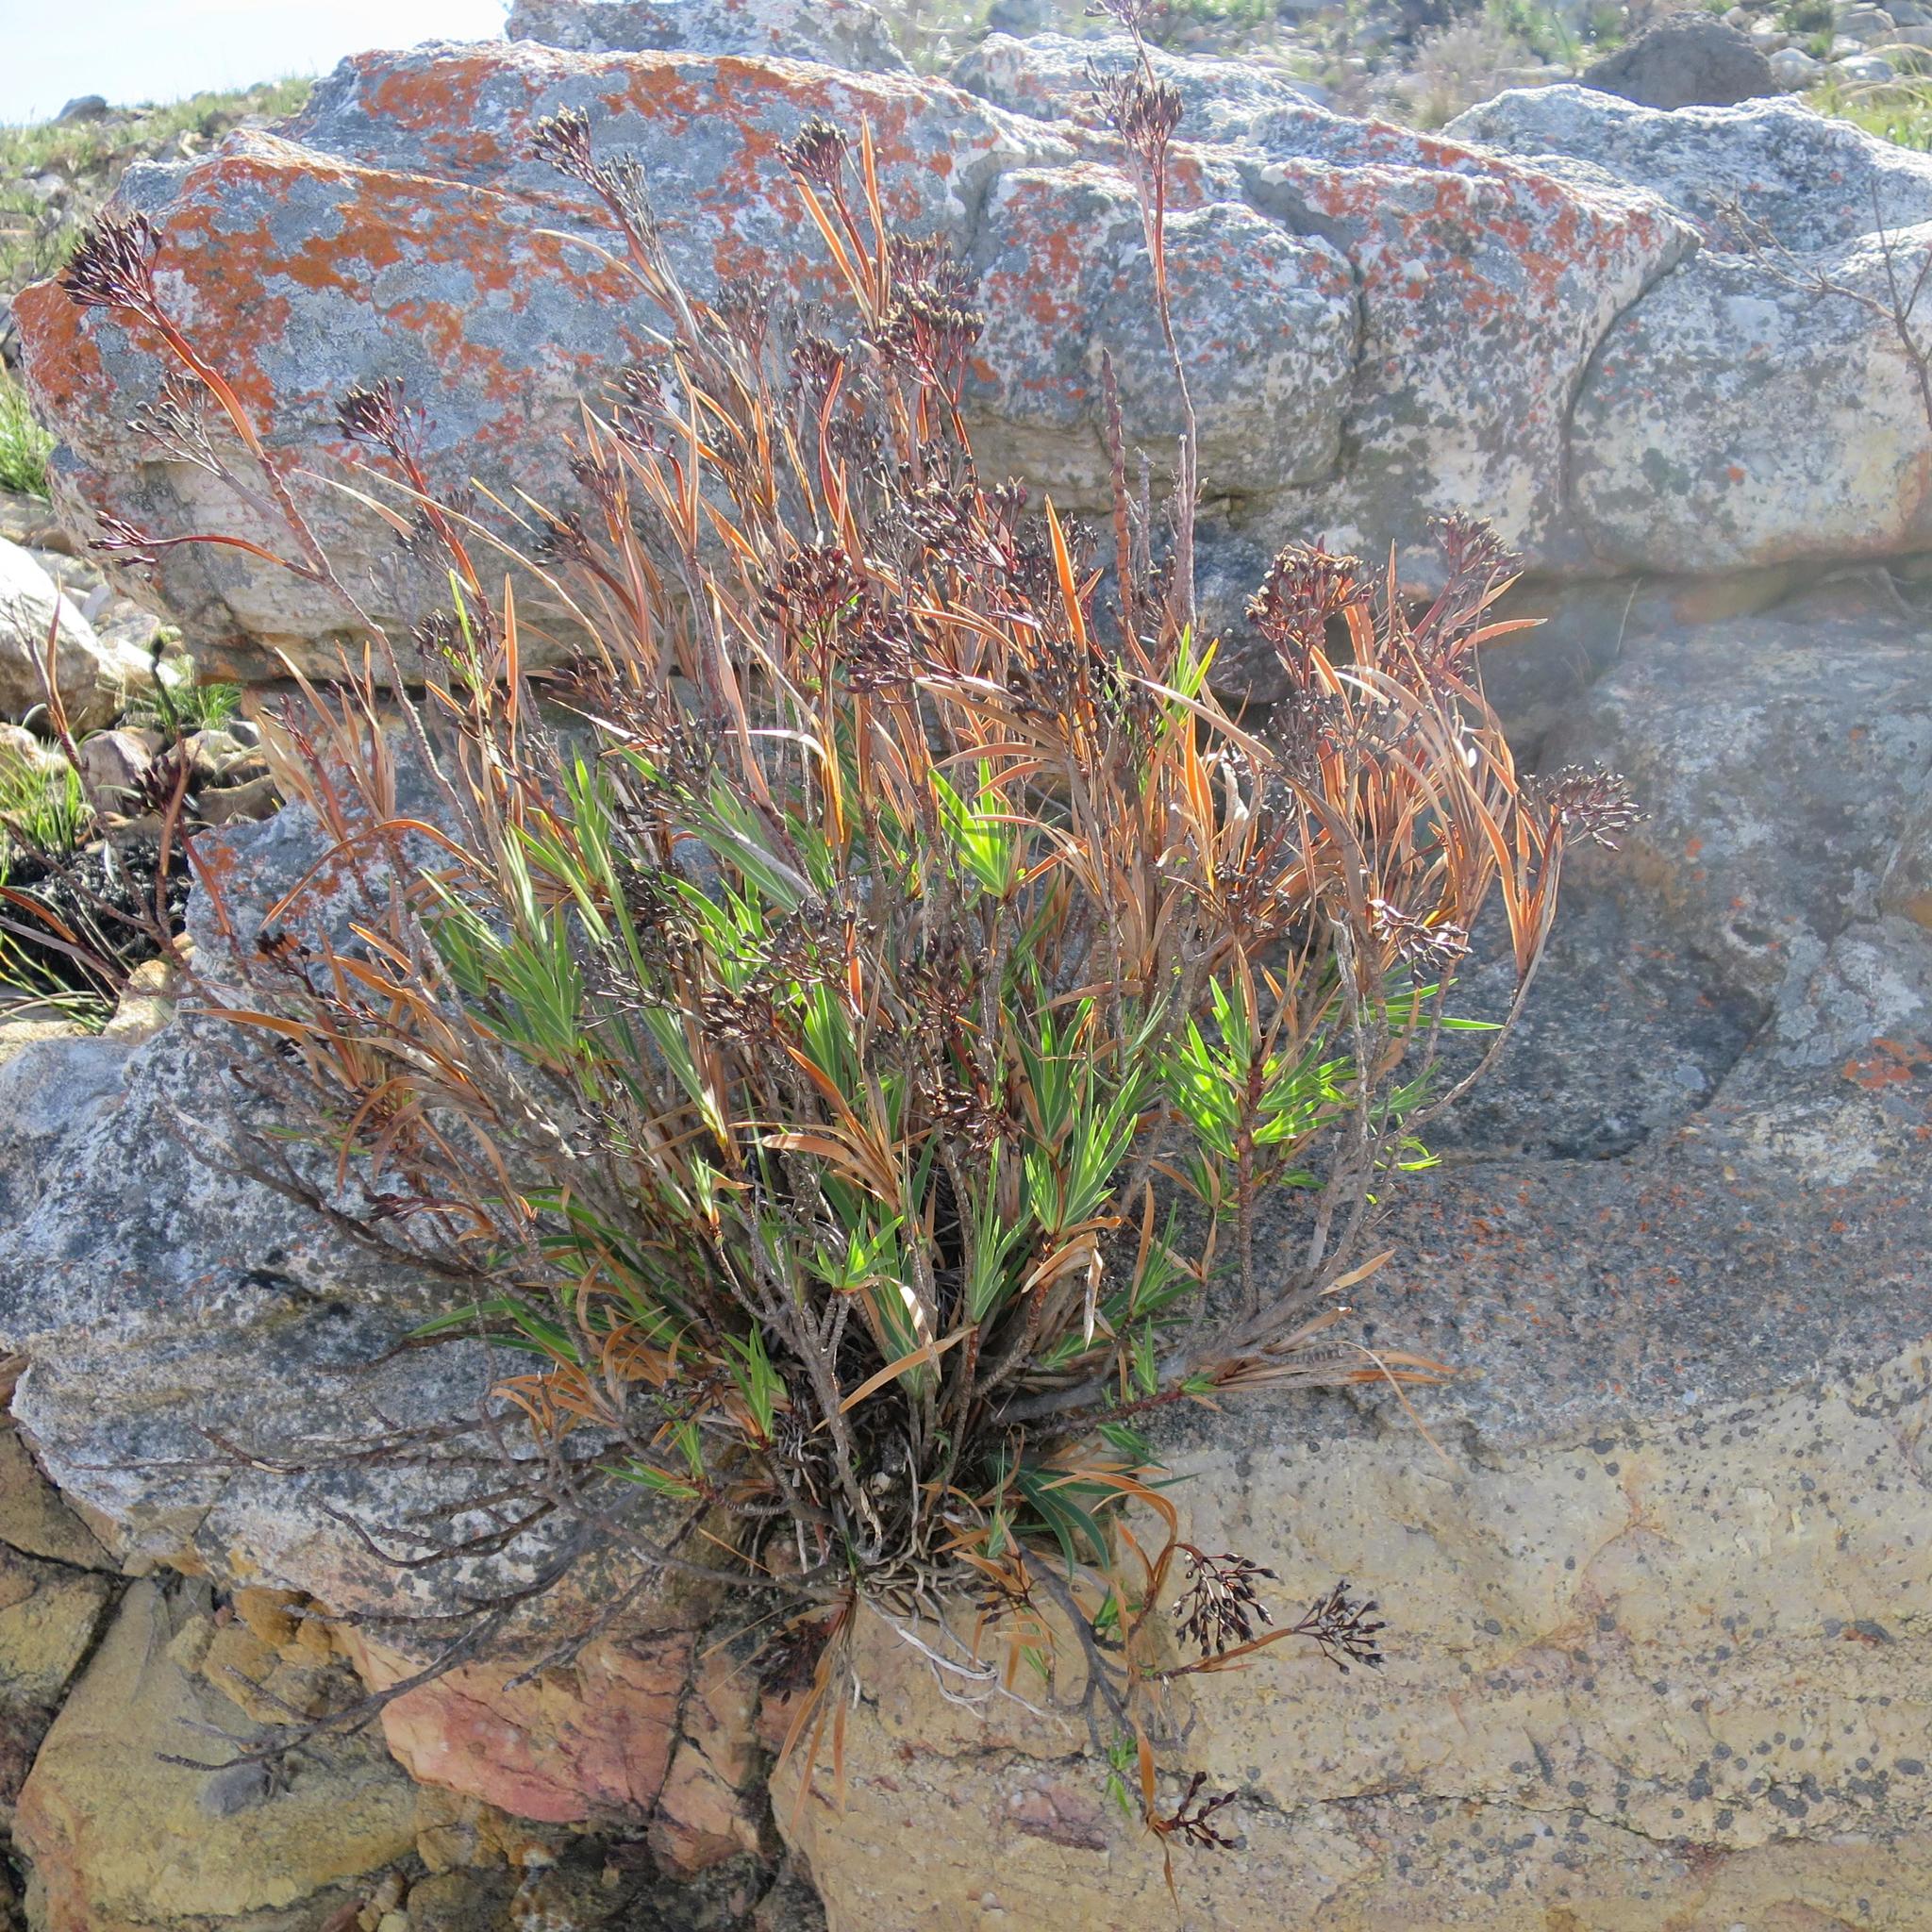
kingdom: Plantae
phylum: Tracheophyta
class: Liliopsida
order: Asparagales
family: Iridaceae
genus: Nivenia
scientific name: Nivenia stenosiphon
